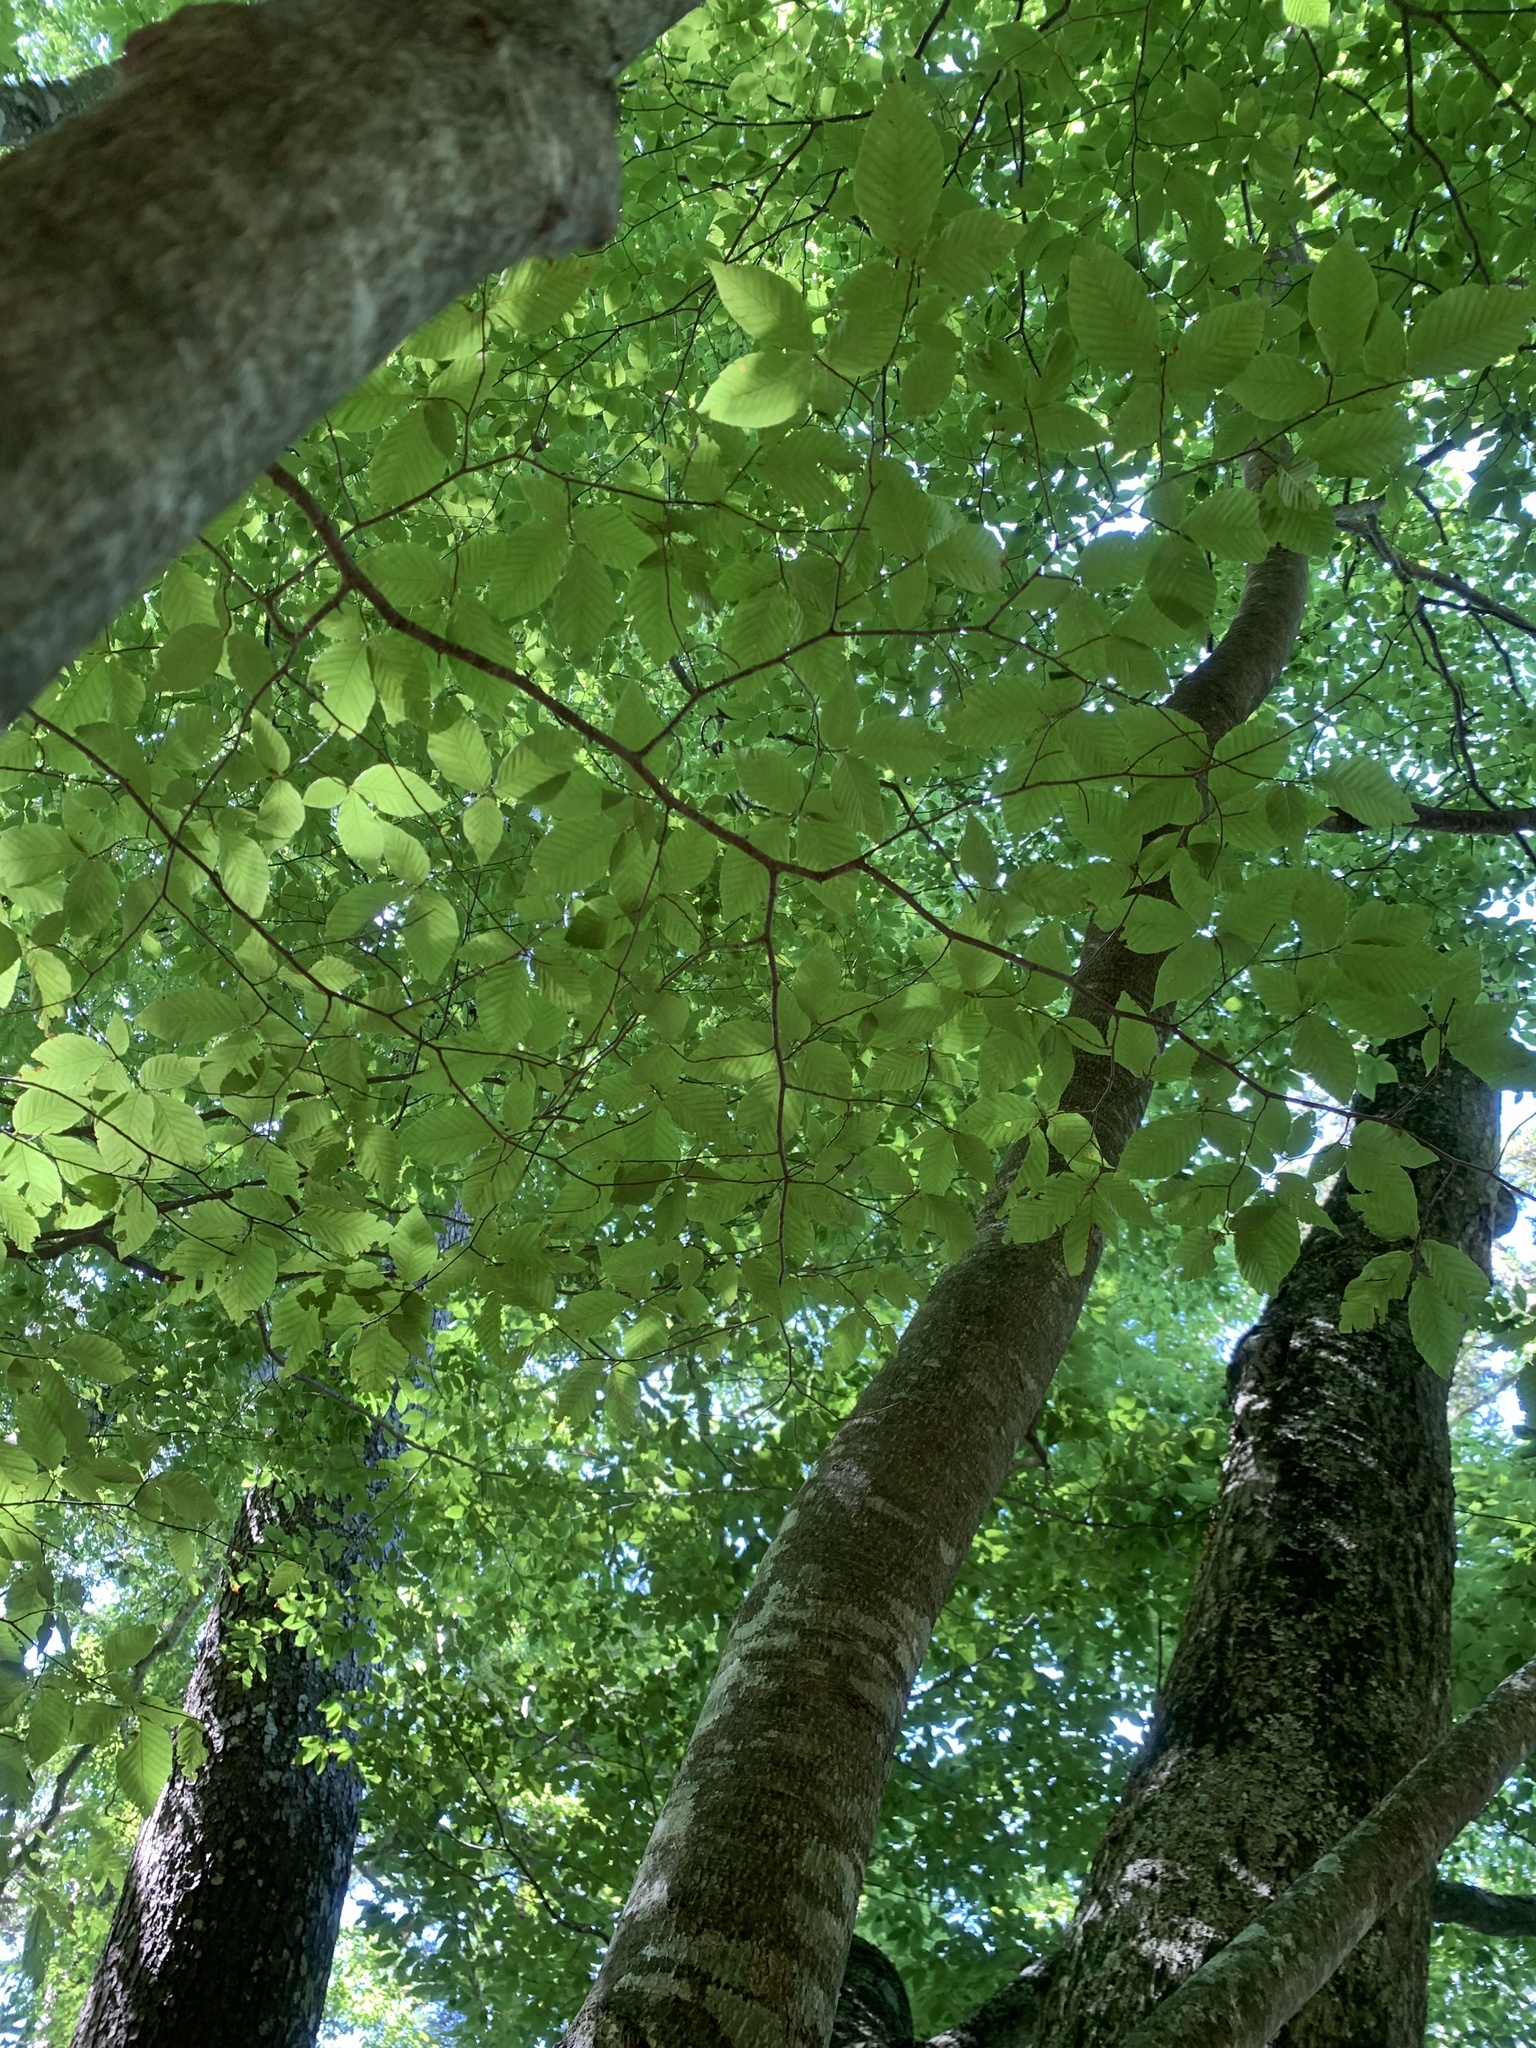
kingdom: Plantae
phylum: Tracheophyta
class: Magnoliopsida
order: Fagales
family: Fagaceae
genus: Fagus
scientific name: Fagus japonica
